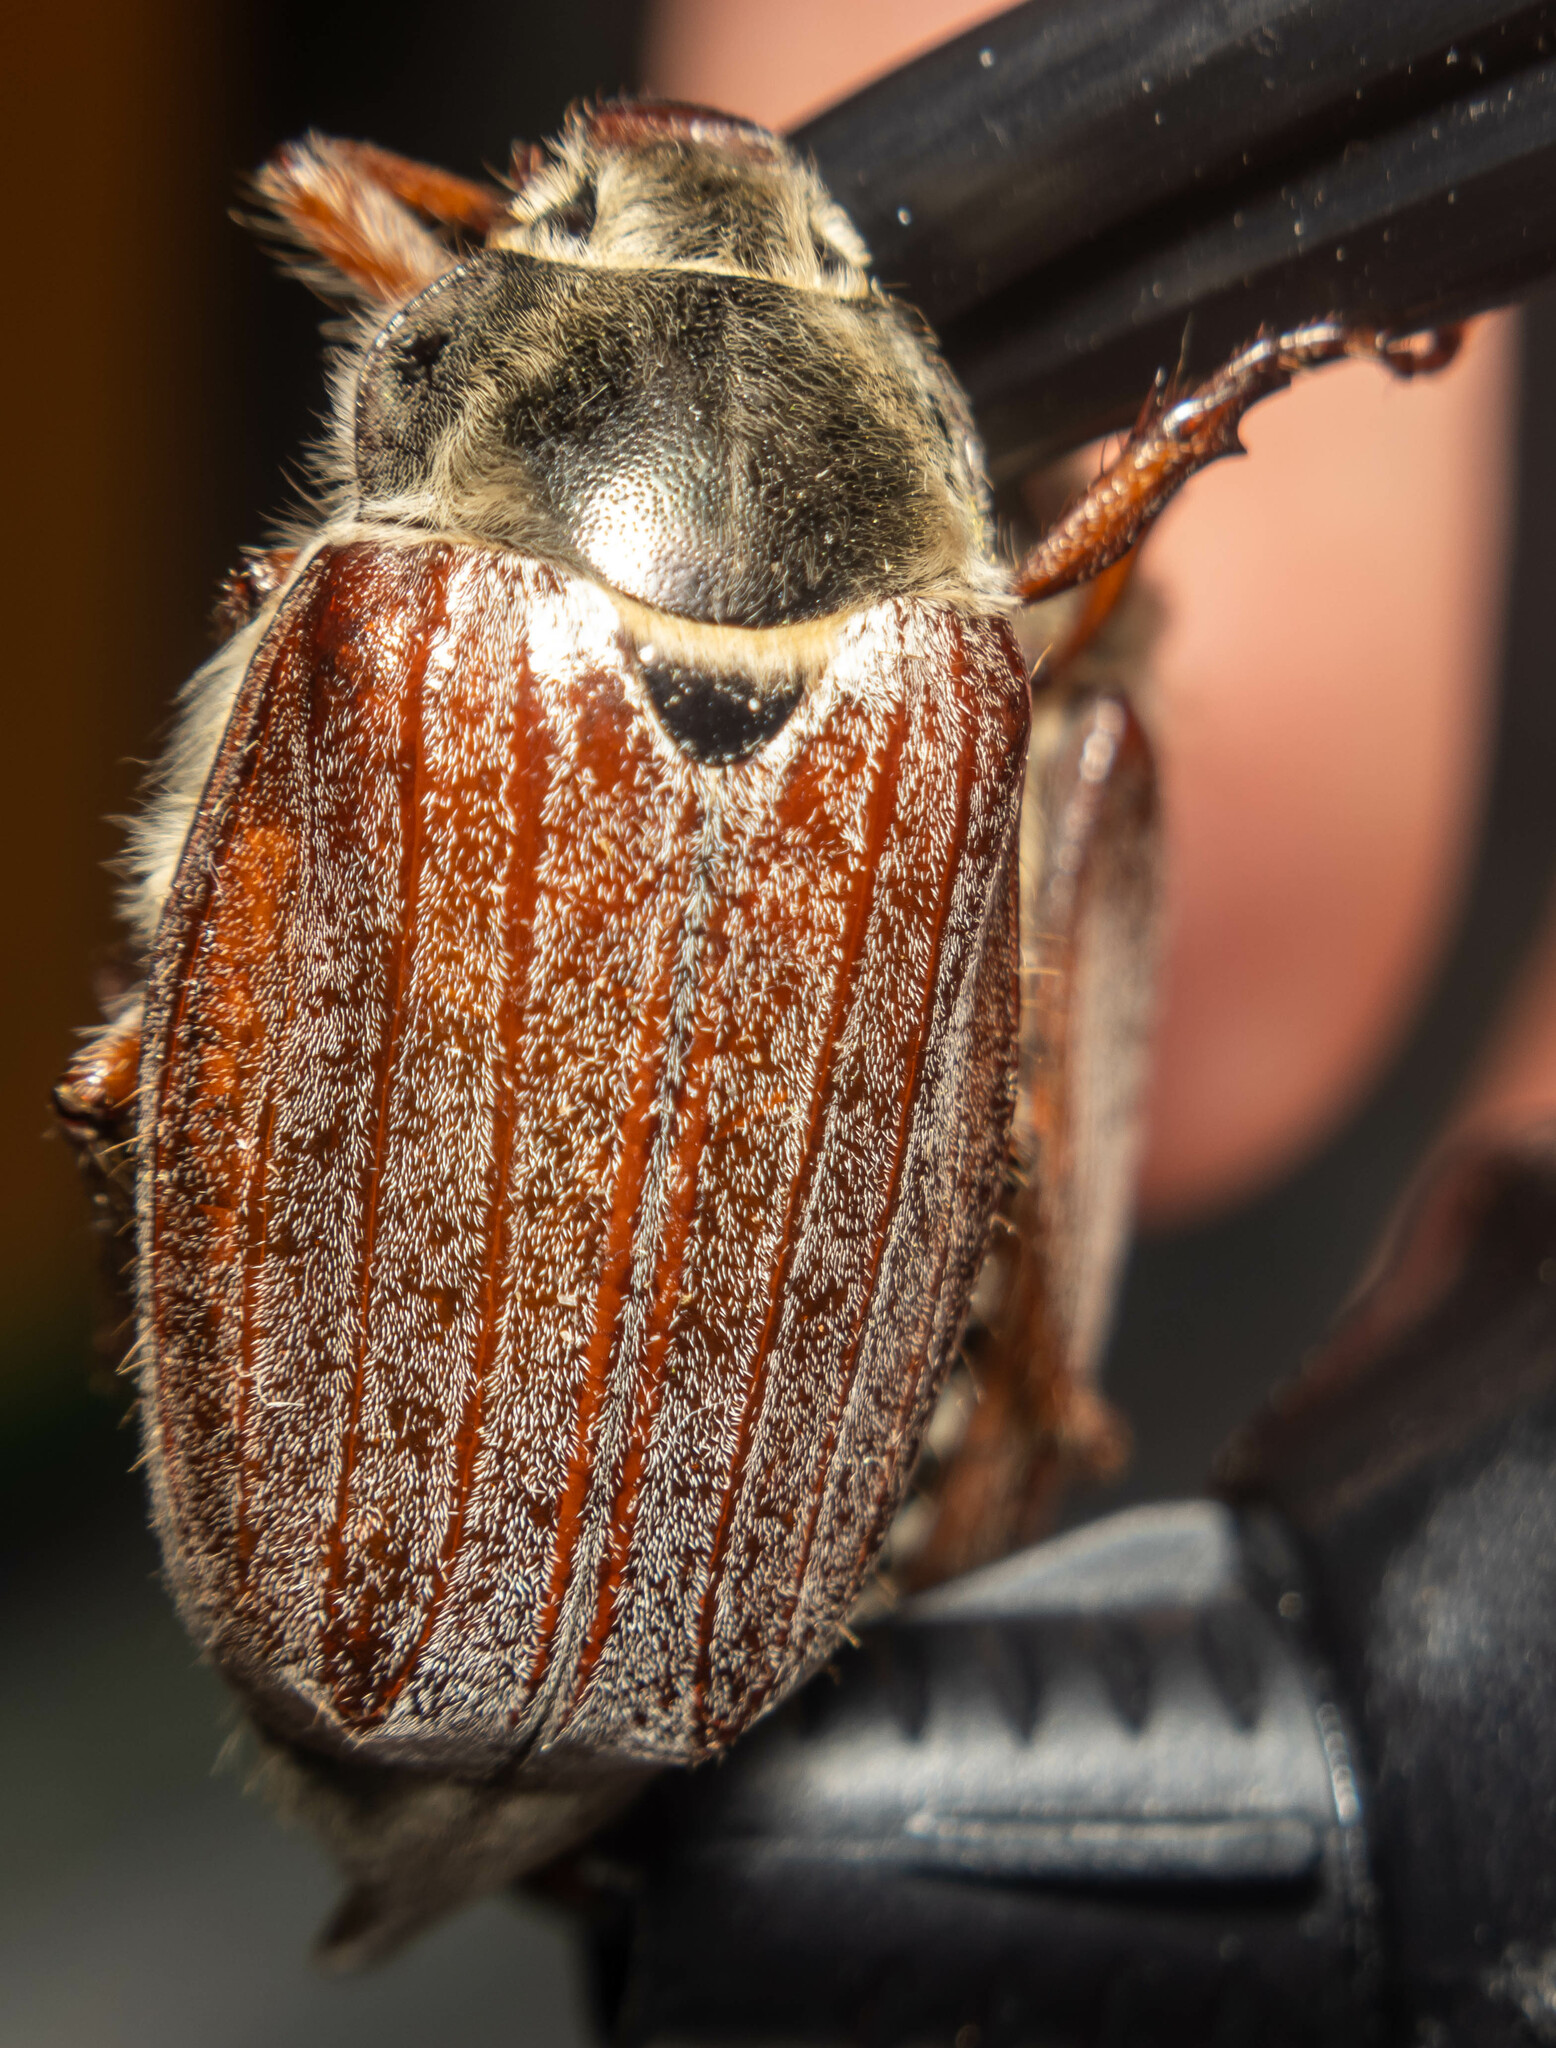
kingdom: Animalia
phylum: Arthropoda
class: Insecta
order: Coleoptera
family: Scarabaeidae
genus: Melolontha
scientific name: Melolontha melolontha
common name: Cockchafer maybeetle
